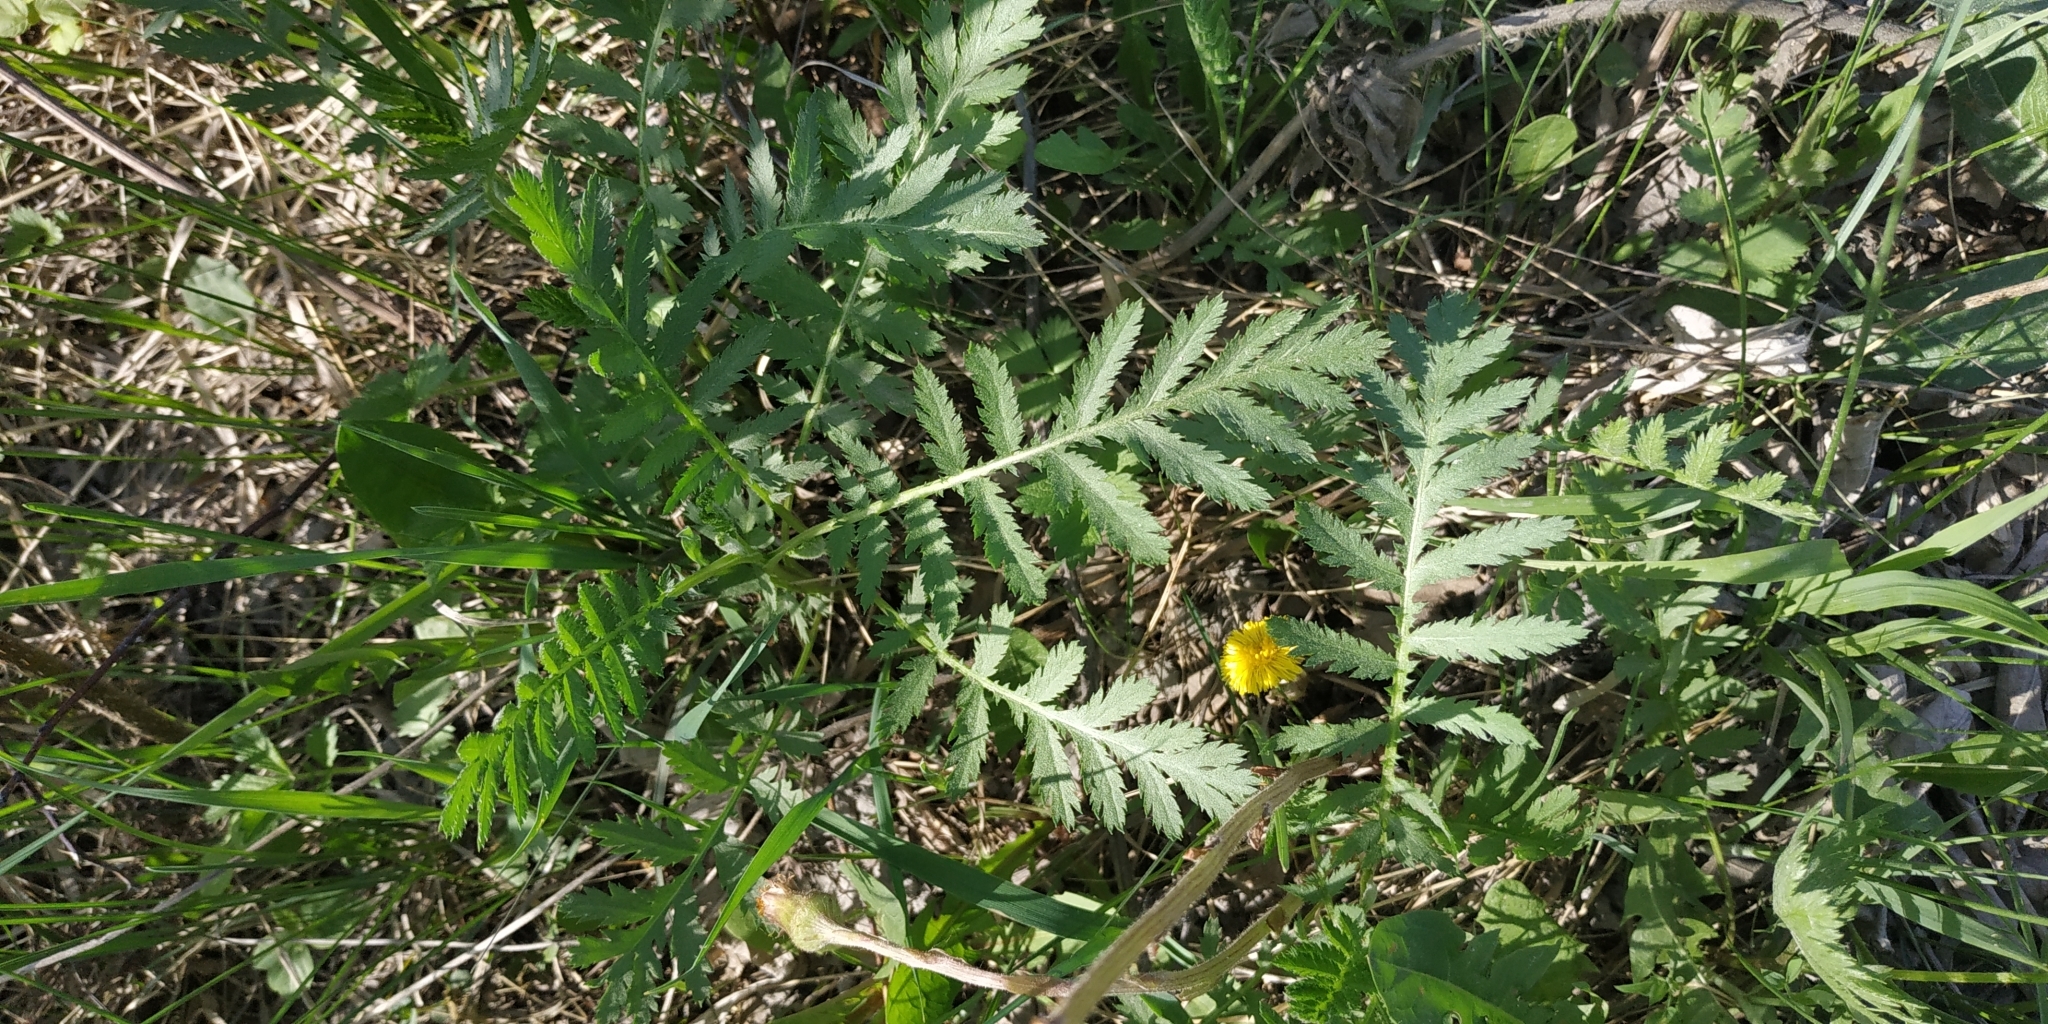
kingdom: Plantae
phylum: Tracheophyta
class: Magnoliopsida
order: Asterales
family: Asteraceae
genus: Tanacetum
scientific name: Tanacetum vulgare
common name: Common tansy
